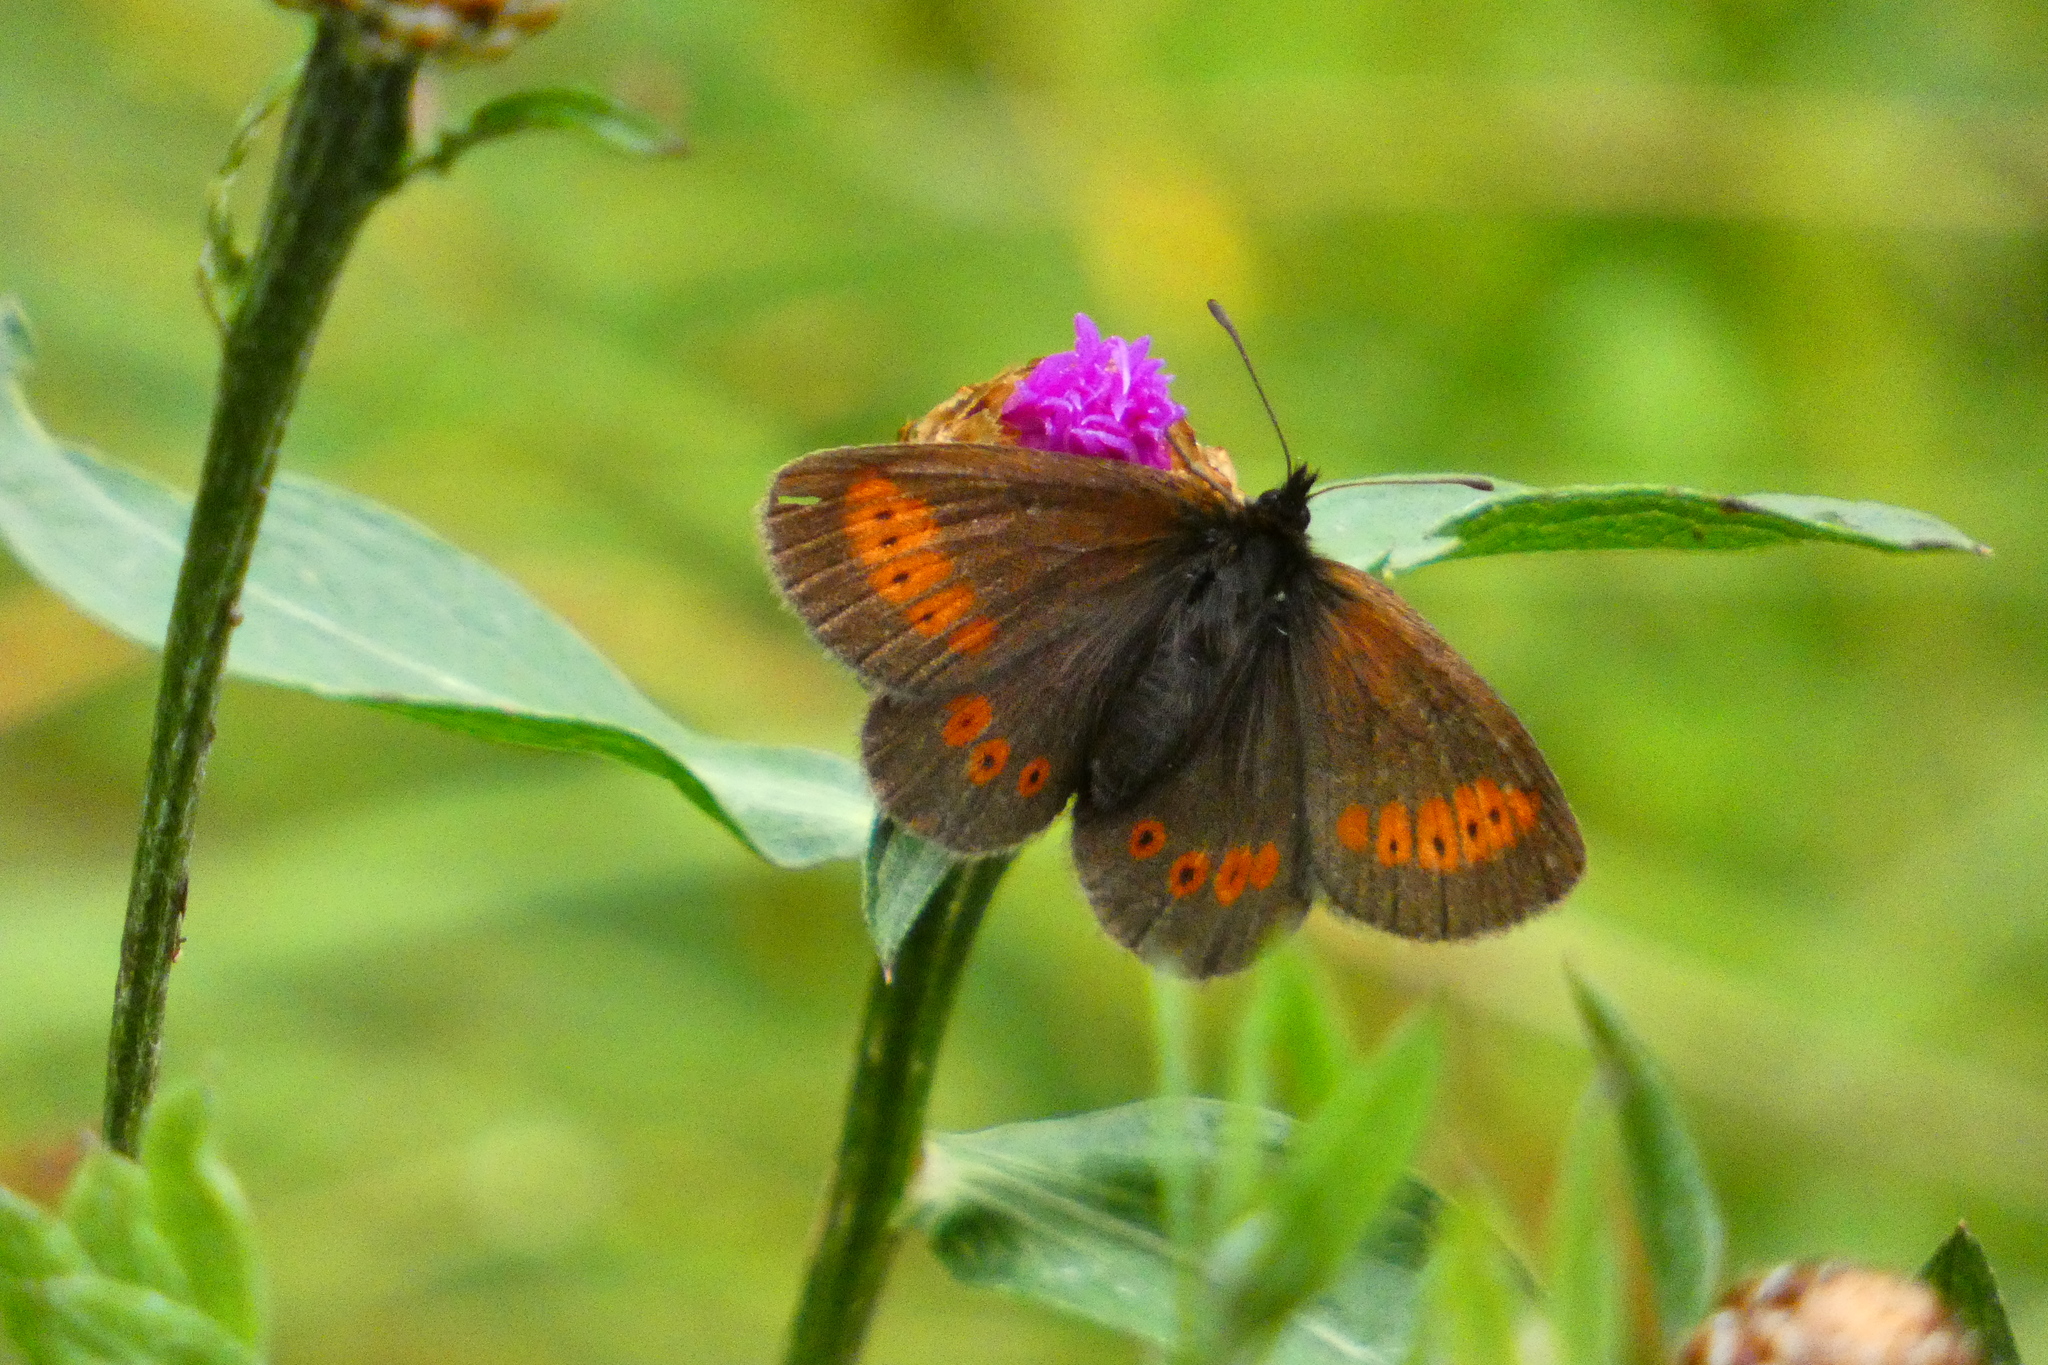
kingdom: Animalia
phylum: Arthropoda
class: Insecta
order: Lepidoptera
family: Nymphalidae
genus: Erebia
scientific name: Erebia melampus
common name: Lesser mountain ringlet
